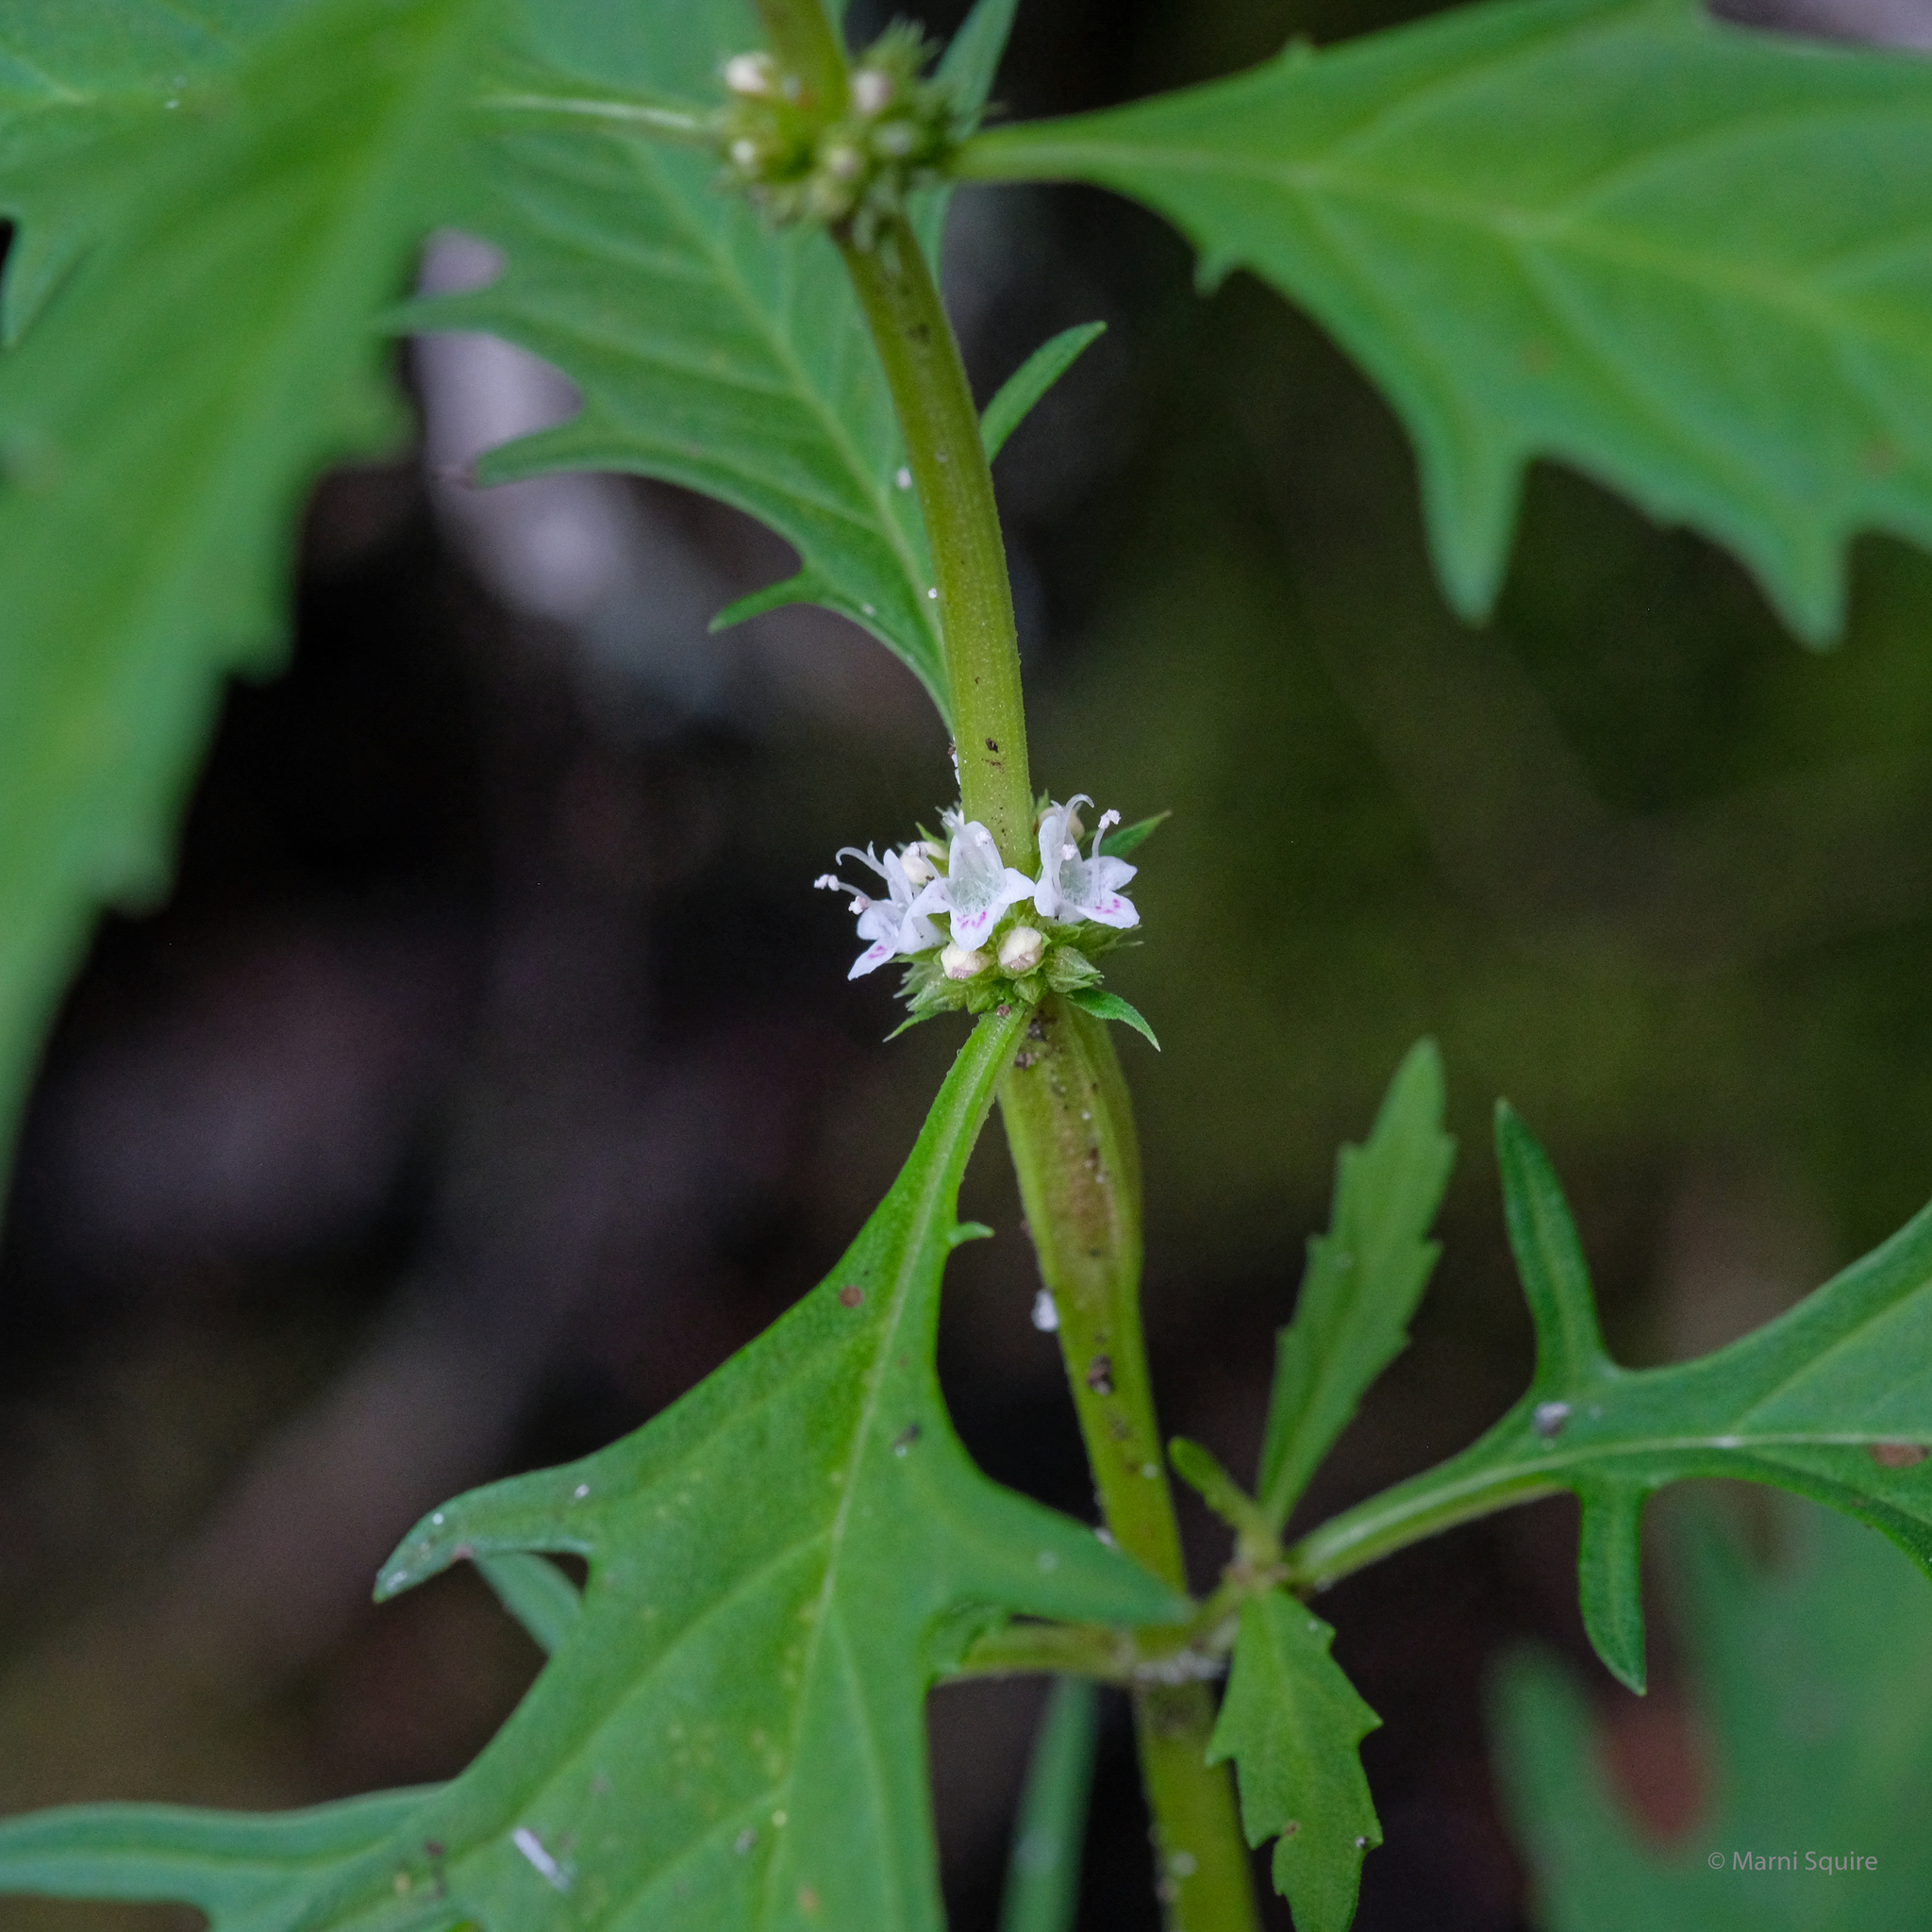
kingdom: Plantae
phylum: Tracheophyta
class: Magnoliopsida
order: Lamiales
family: Lamiaceae
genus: Lycopus
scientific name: Lycopus americanus
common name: American bugleweed
